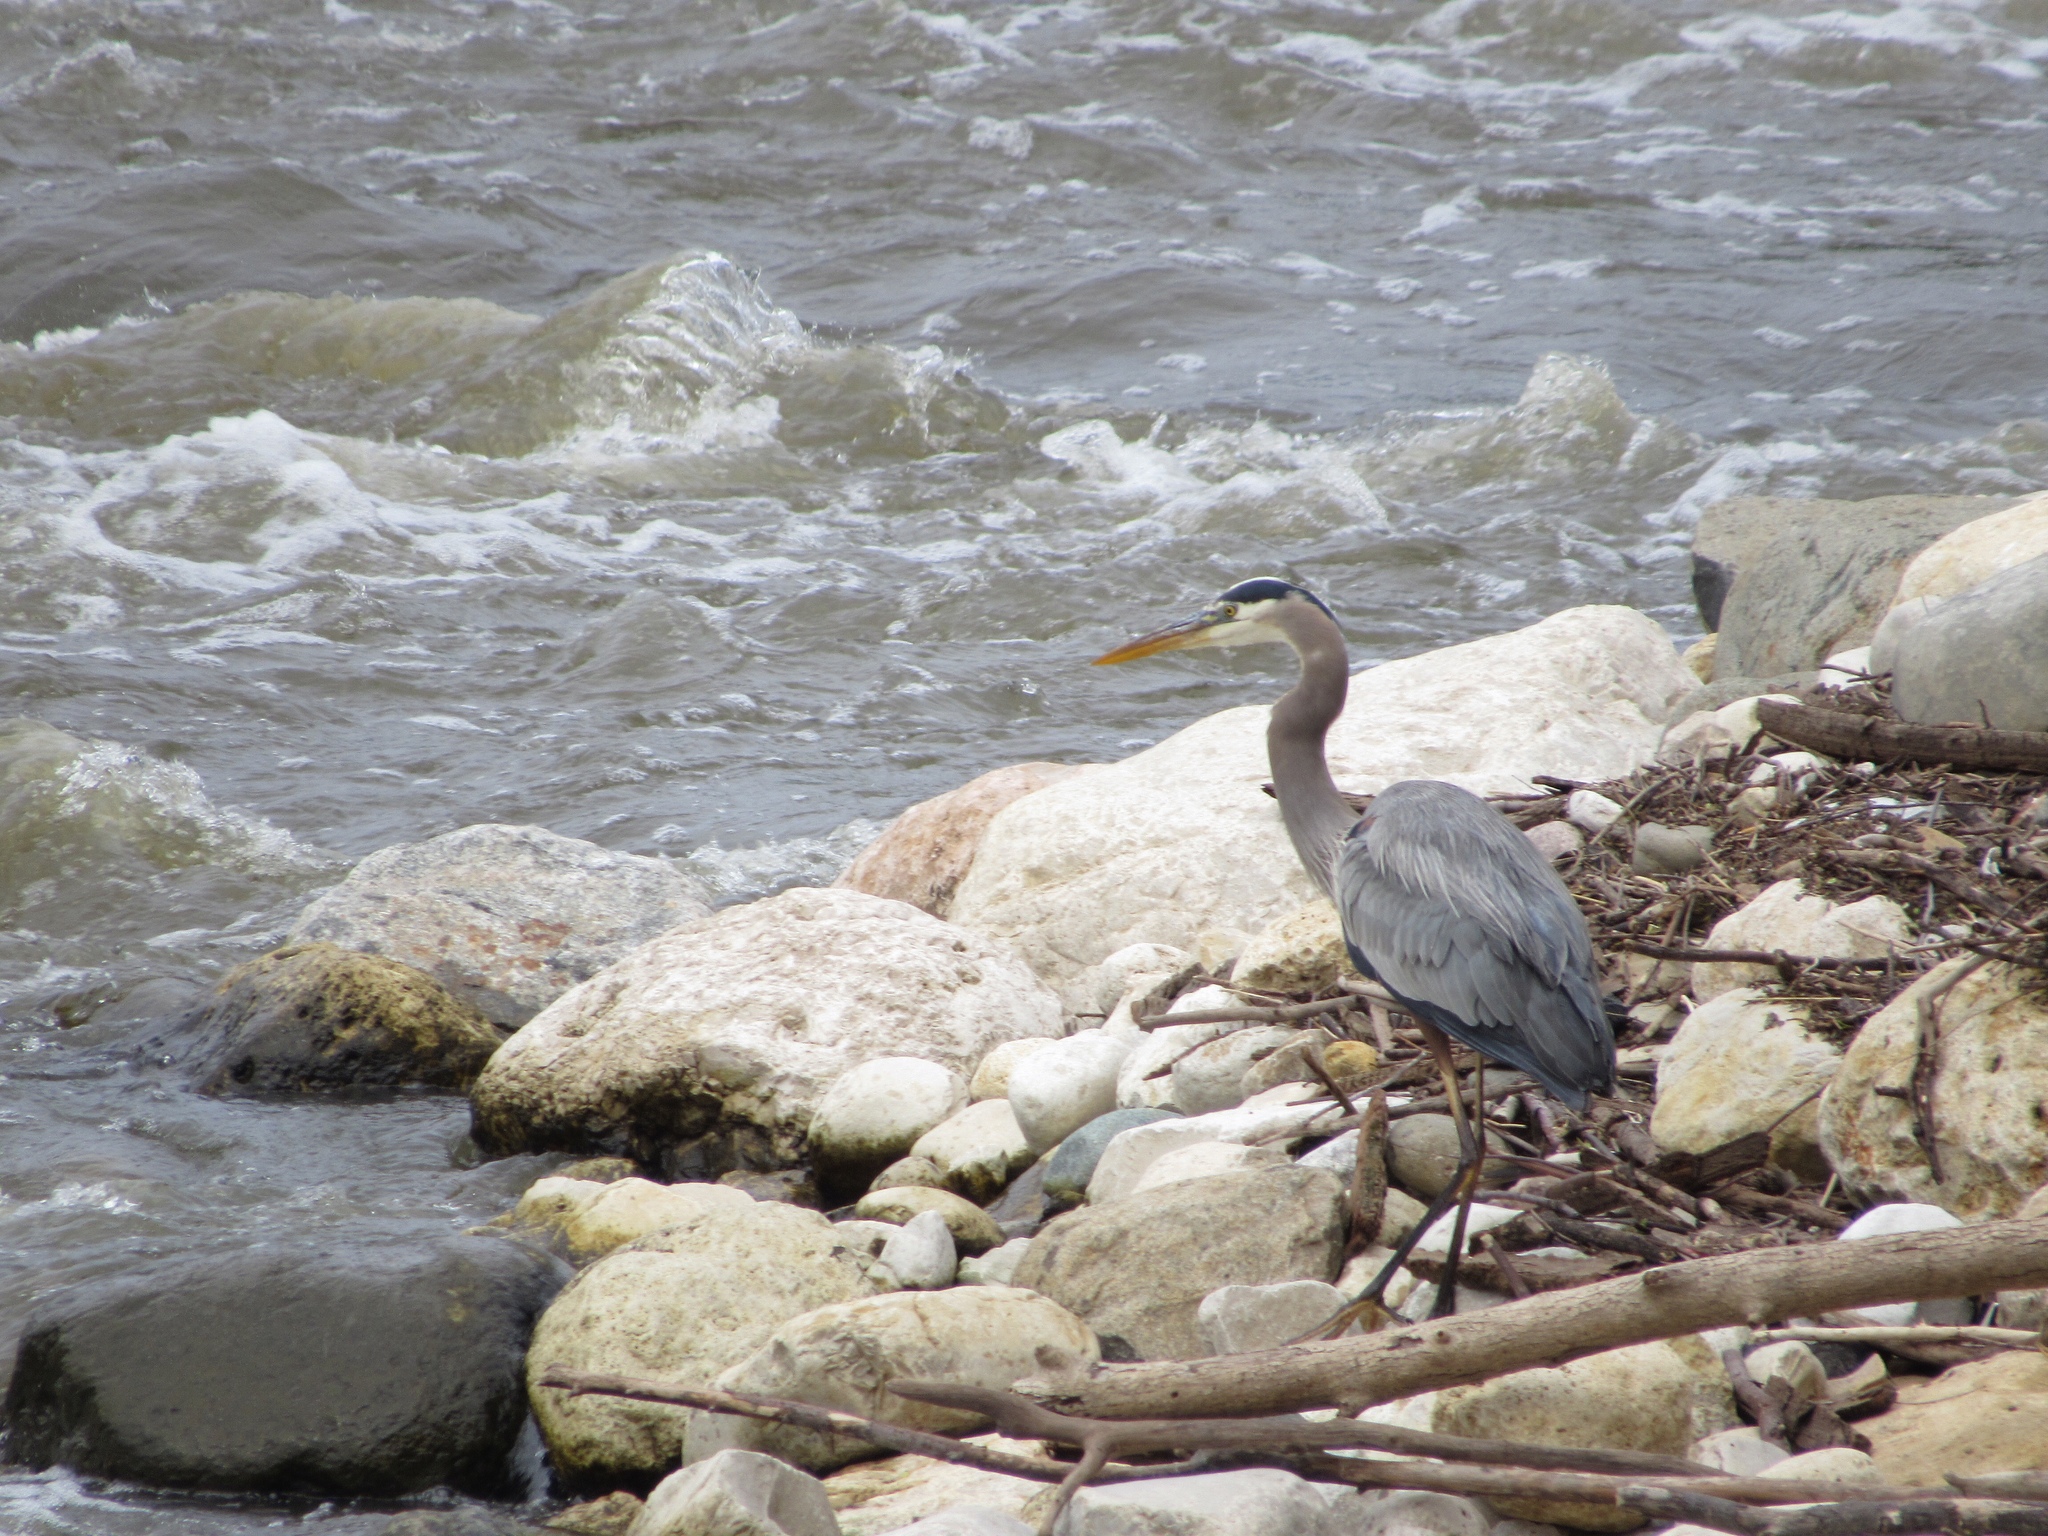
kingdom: Animalia
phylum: Chordata
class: Aves
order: Pelecaniformes
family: Ardeidae
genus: Ardea
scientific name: Ardea herodias
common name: Great blue heron
